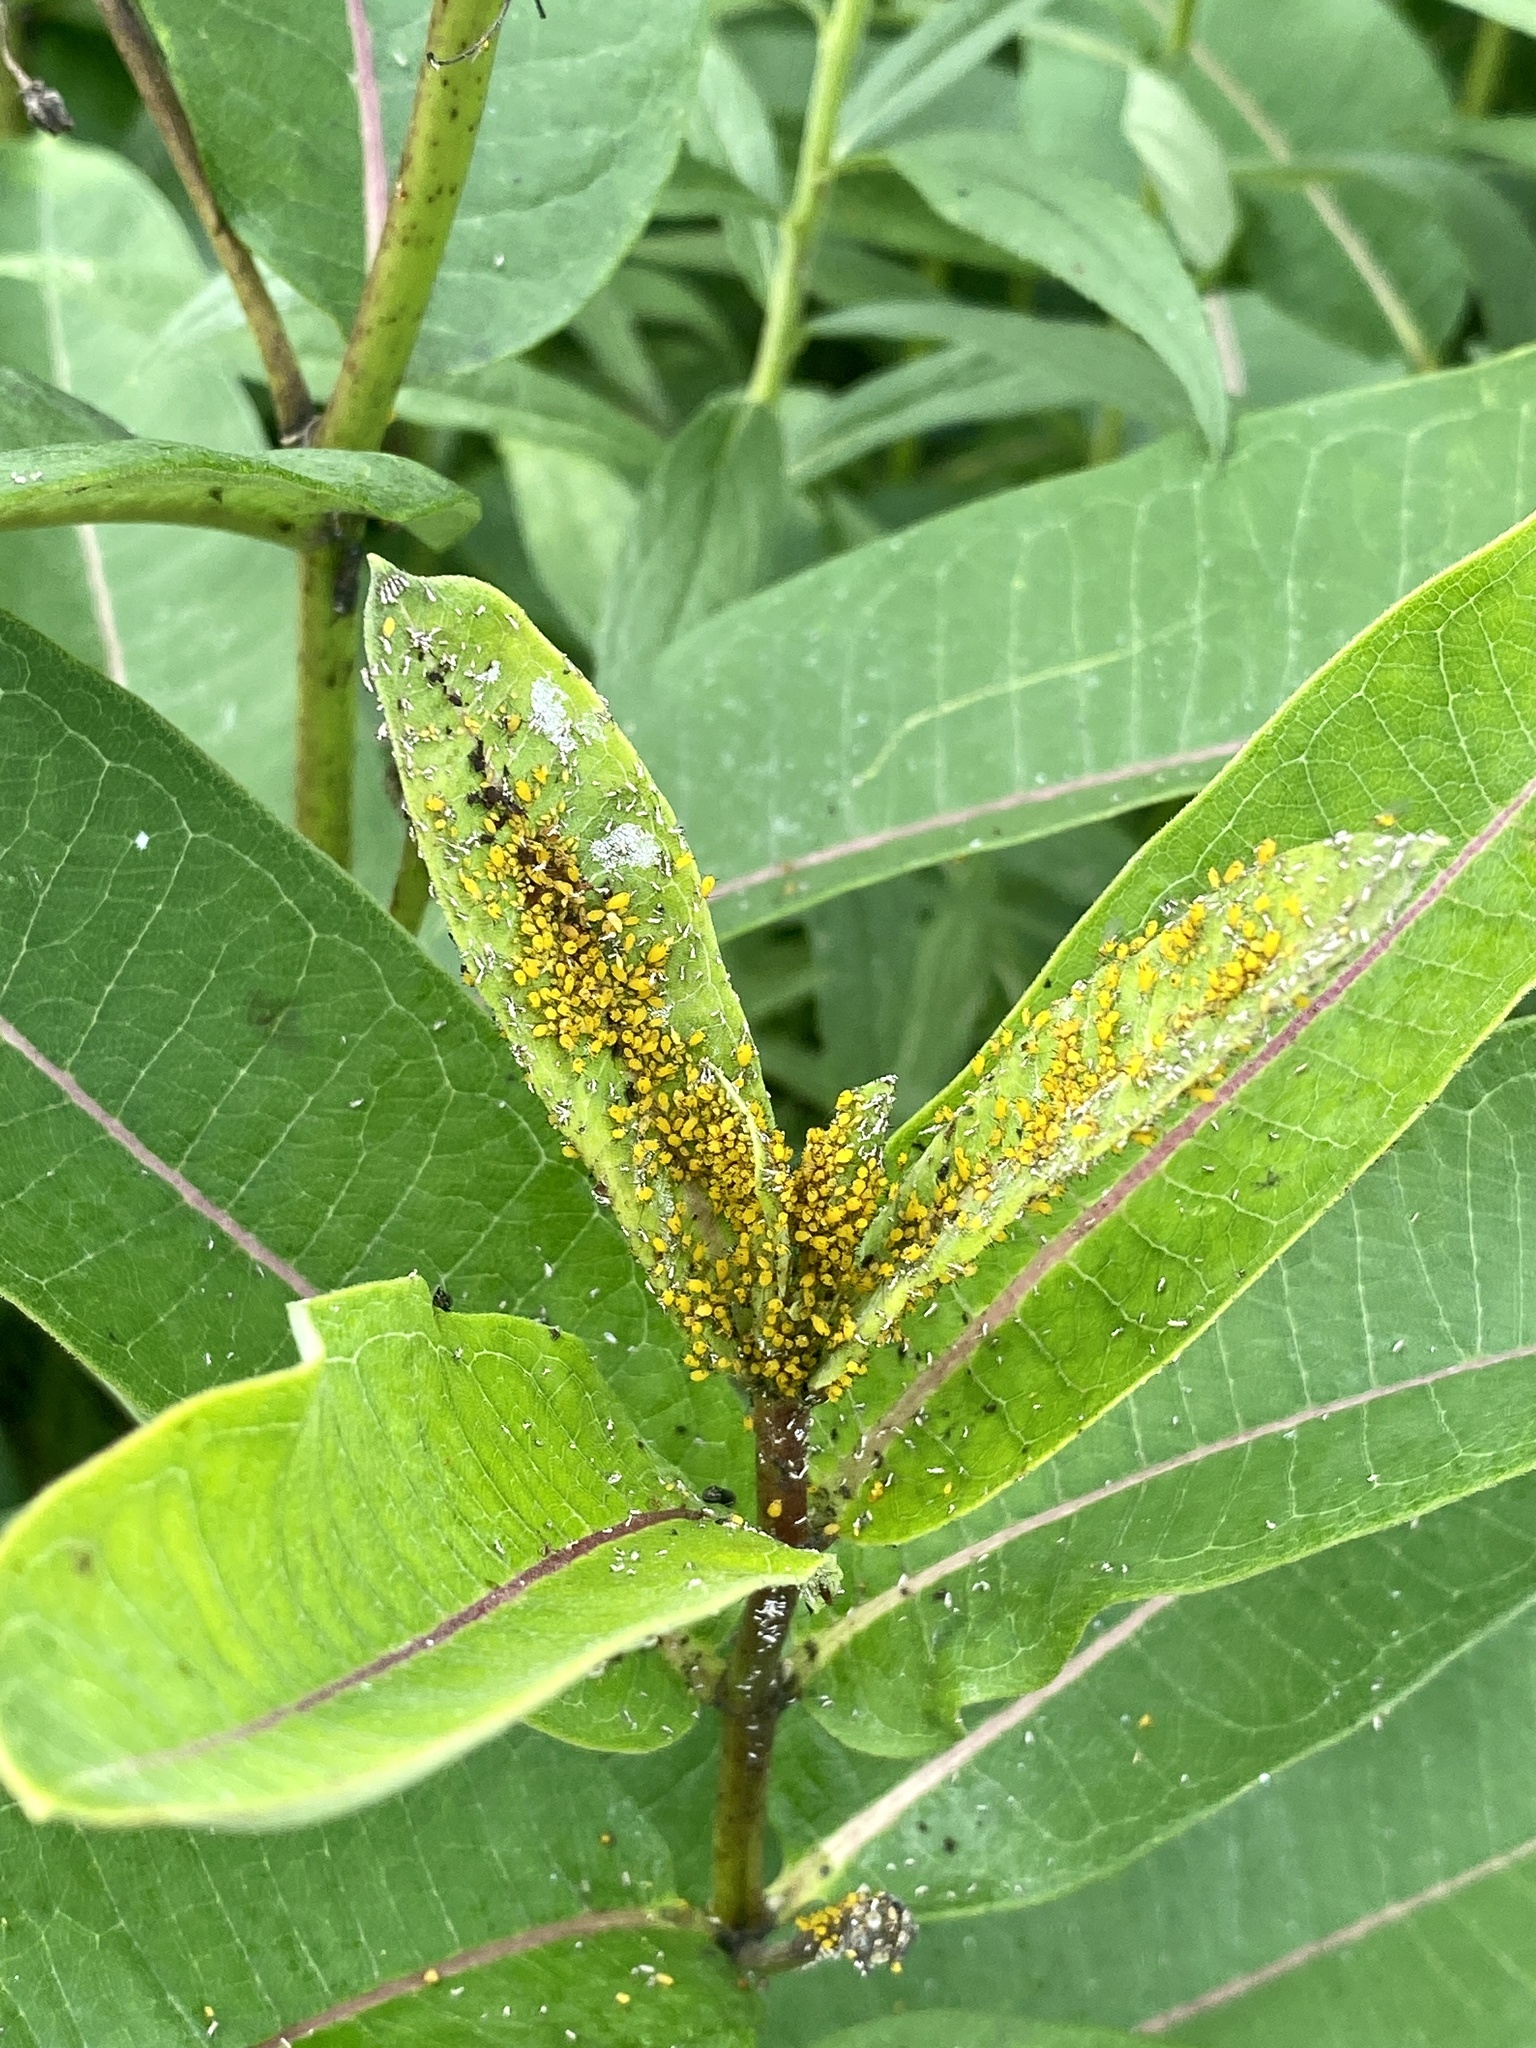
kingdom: Animalia
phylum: Arthropoda
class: Insecta
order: Coleoptera
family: Coccinellidae
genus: Harmonia
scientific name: Harmonia axyridis
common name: Harlequin ladybird
